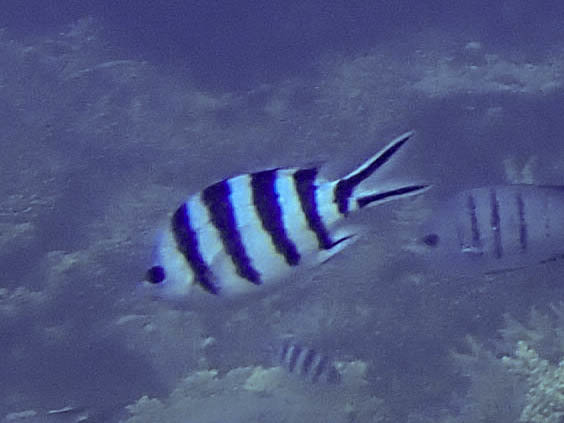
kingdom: Animalia
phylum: Chordata
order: Perciformes
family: Pomacentridae
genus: Abudefduf
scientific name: Abudefduf sexfasciatus
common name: Scissortail sergeant
